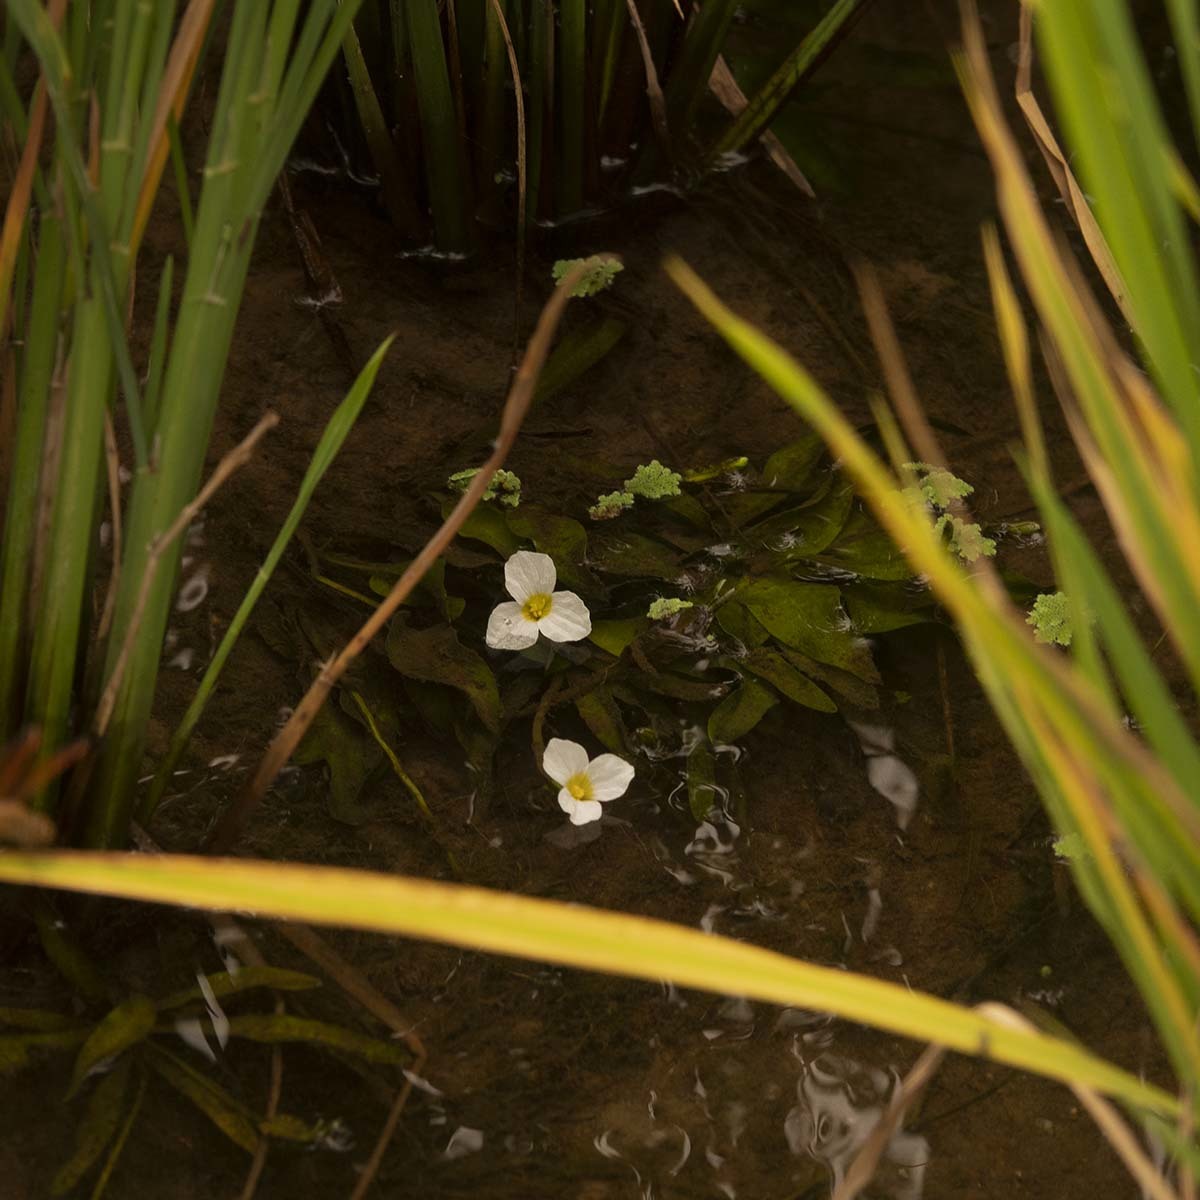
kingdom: Plantae
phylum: Tracheophyta
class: Liliopsida
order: Alismatales
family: Hydrocharitaceae
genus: Ottelia
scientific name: Ottelia alismoides
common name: Duck-lettuce
